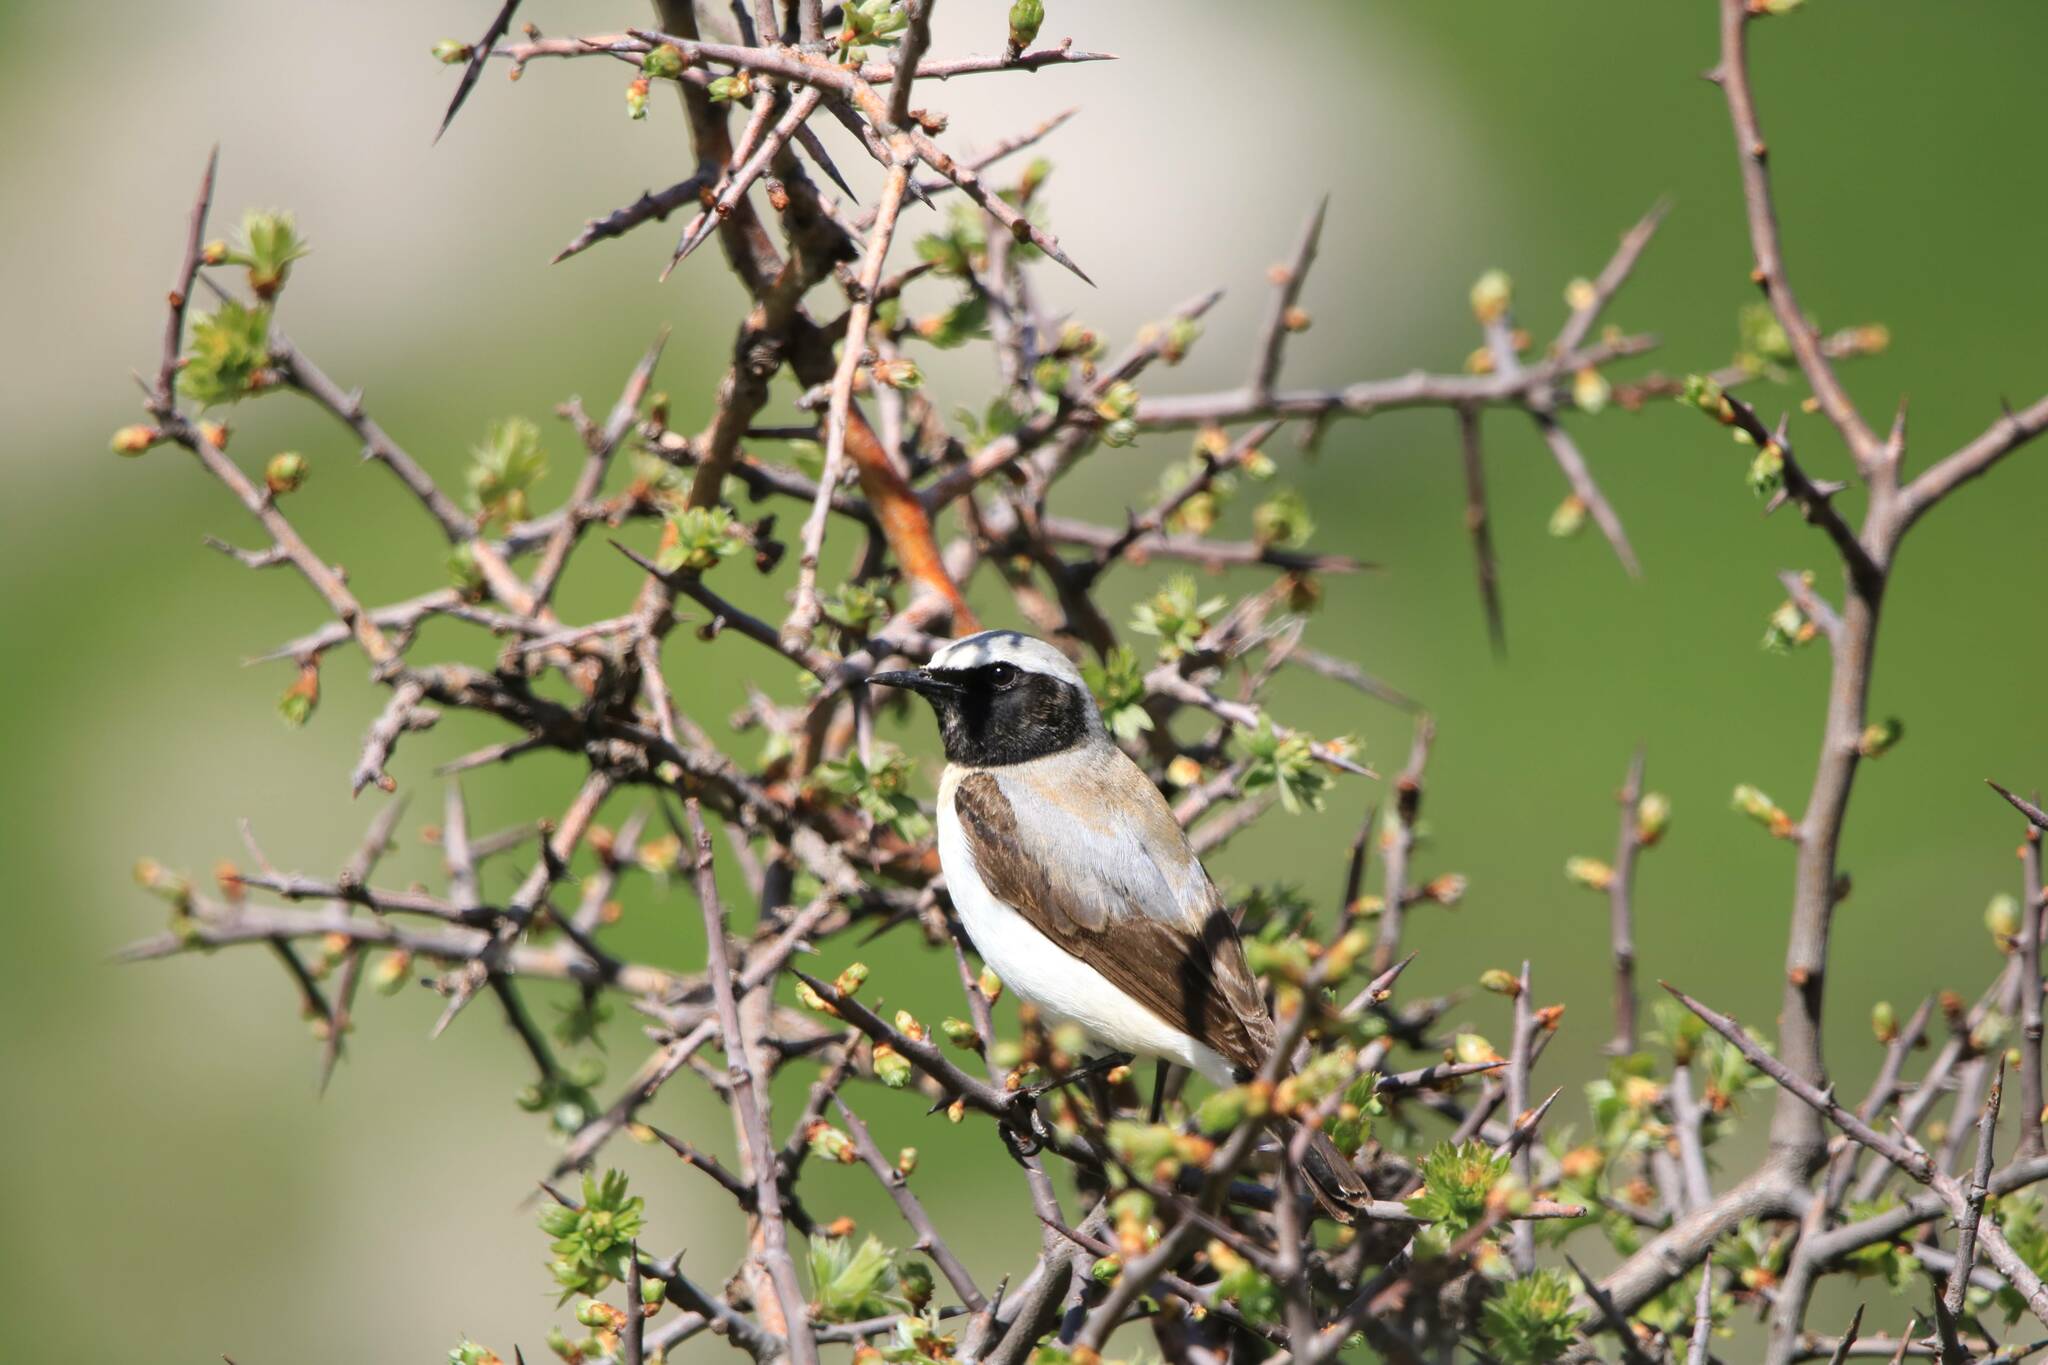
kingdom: Animalia
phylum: Chordata
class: Aves
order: Passeriformes
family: Muscicapidae
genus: Oenanthe
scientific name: Oenanthe oenanthe
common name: Northern wheatear
